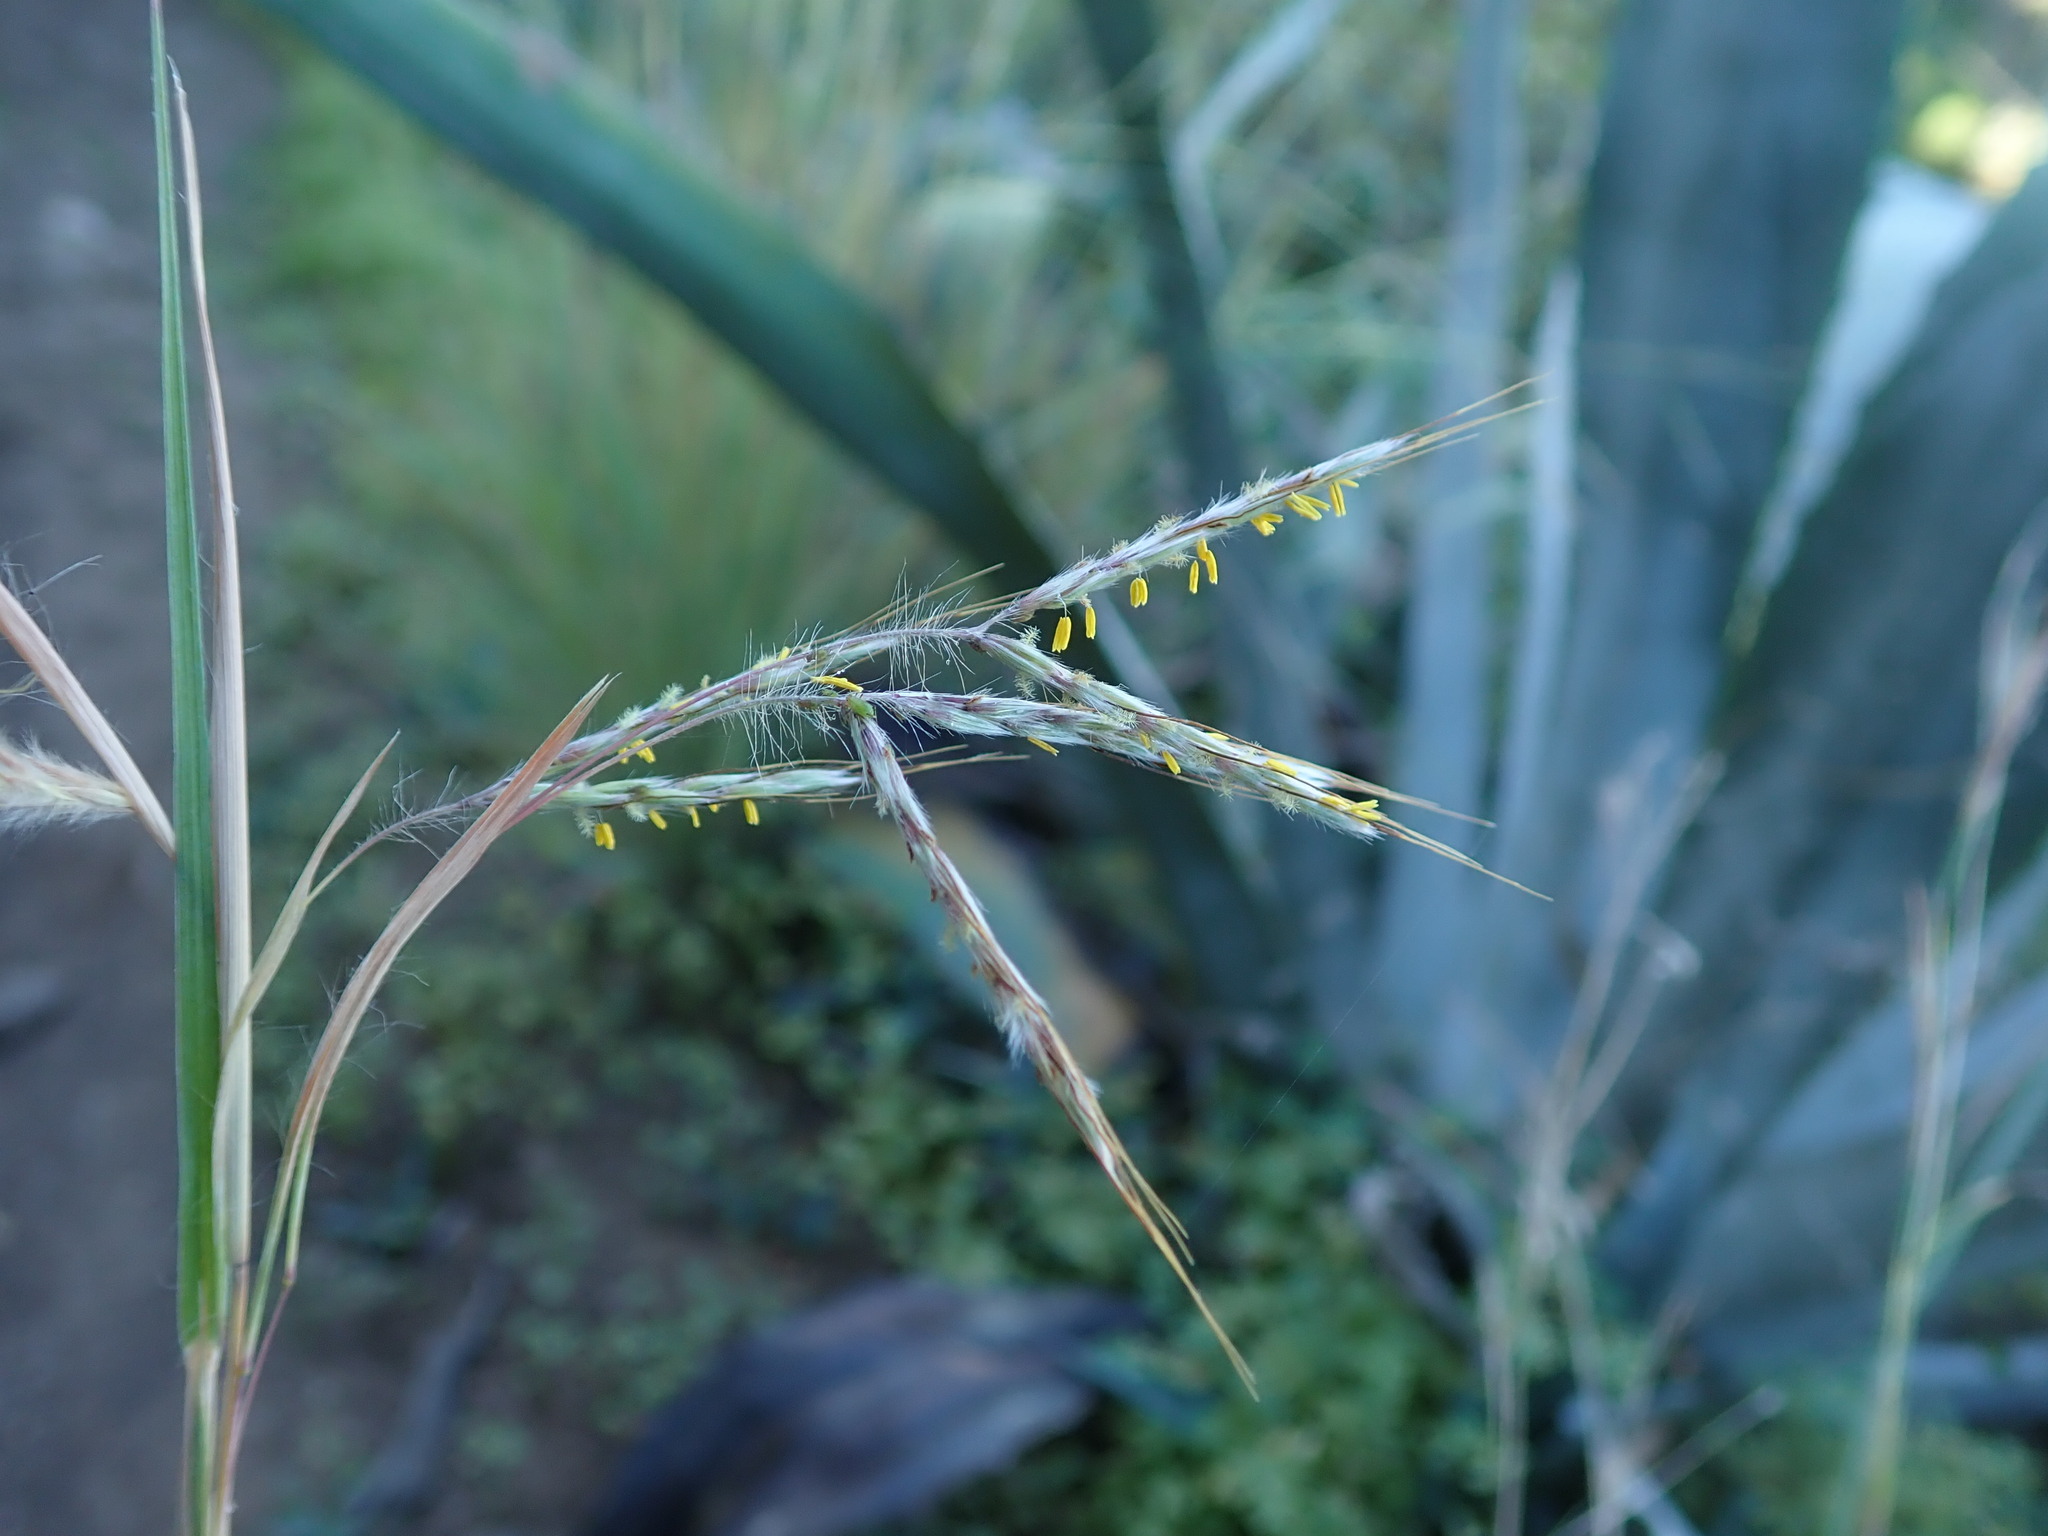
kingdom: Plantae
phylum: Tracheophyta
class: Liliopsida
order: Poales
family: Poaceae
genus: Hyparrhenia
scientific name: Hyparrhenia hirta
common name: Thatching grass
